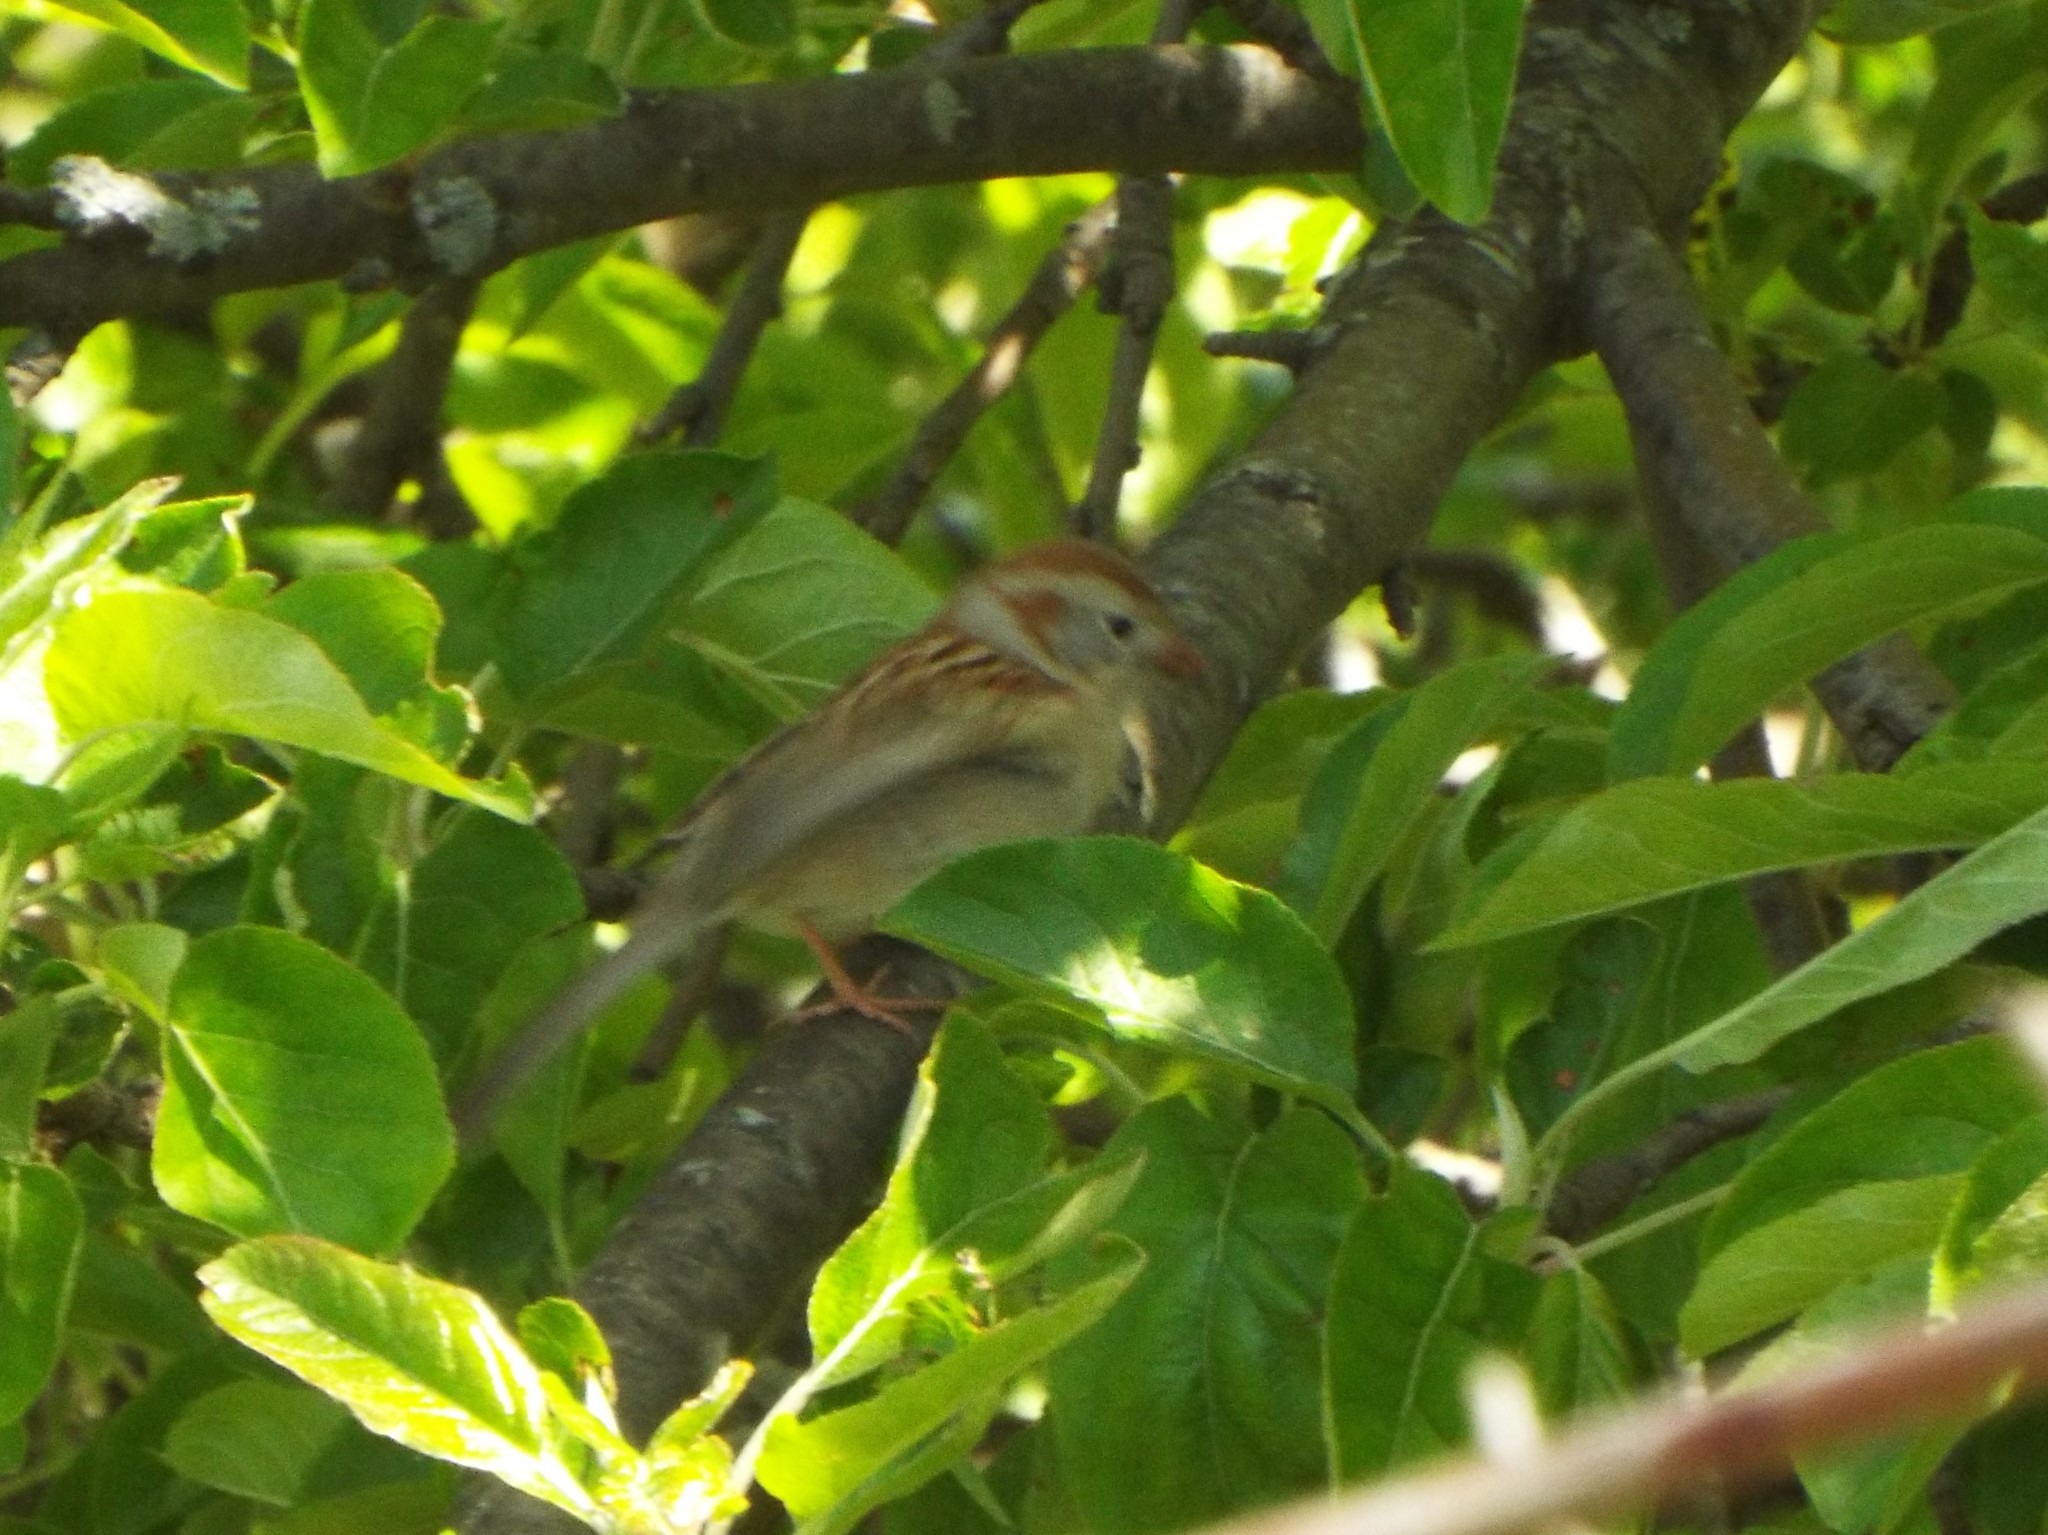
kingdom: Animalia
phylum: Chordata
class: Aves
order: Passeriformes
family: Passerellidae
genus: Spizella
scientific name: Spizella pusilla
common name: Field sparrow
